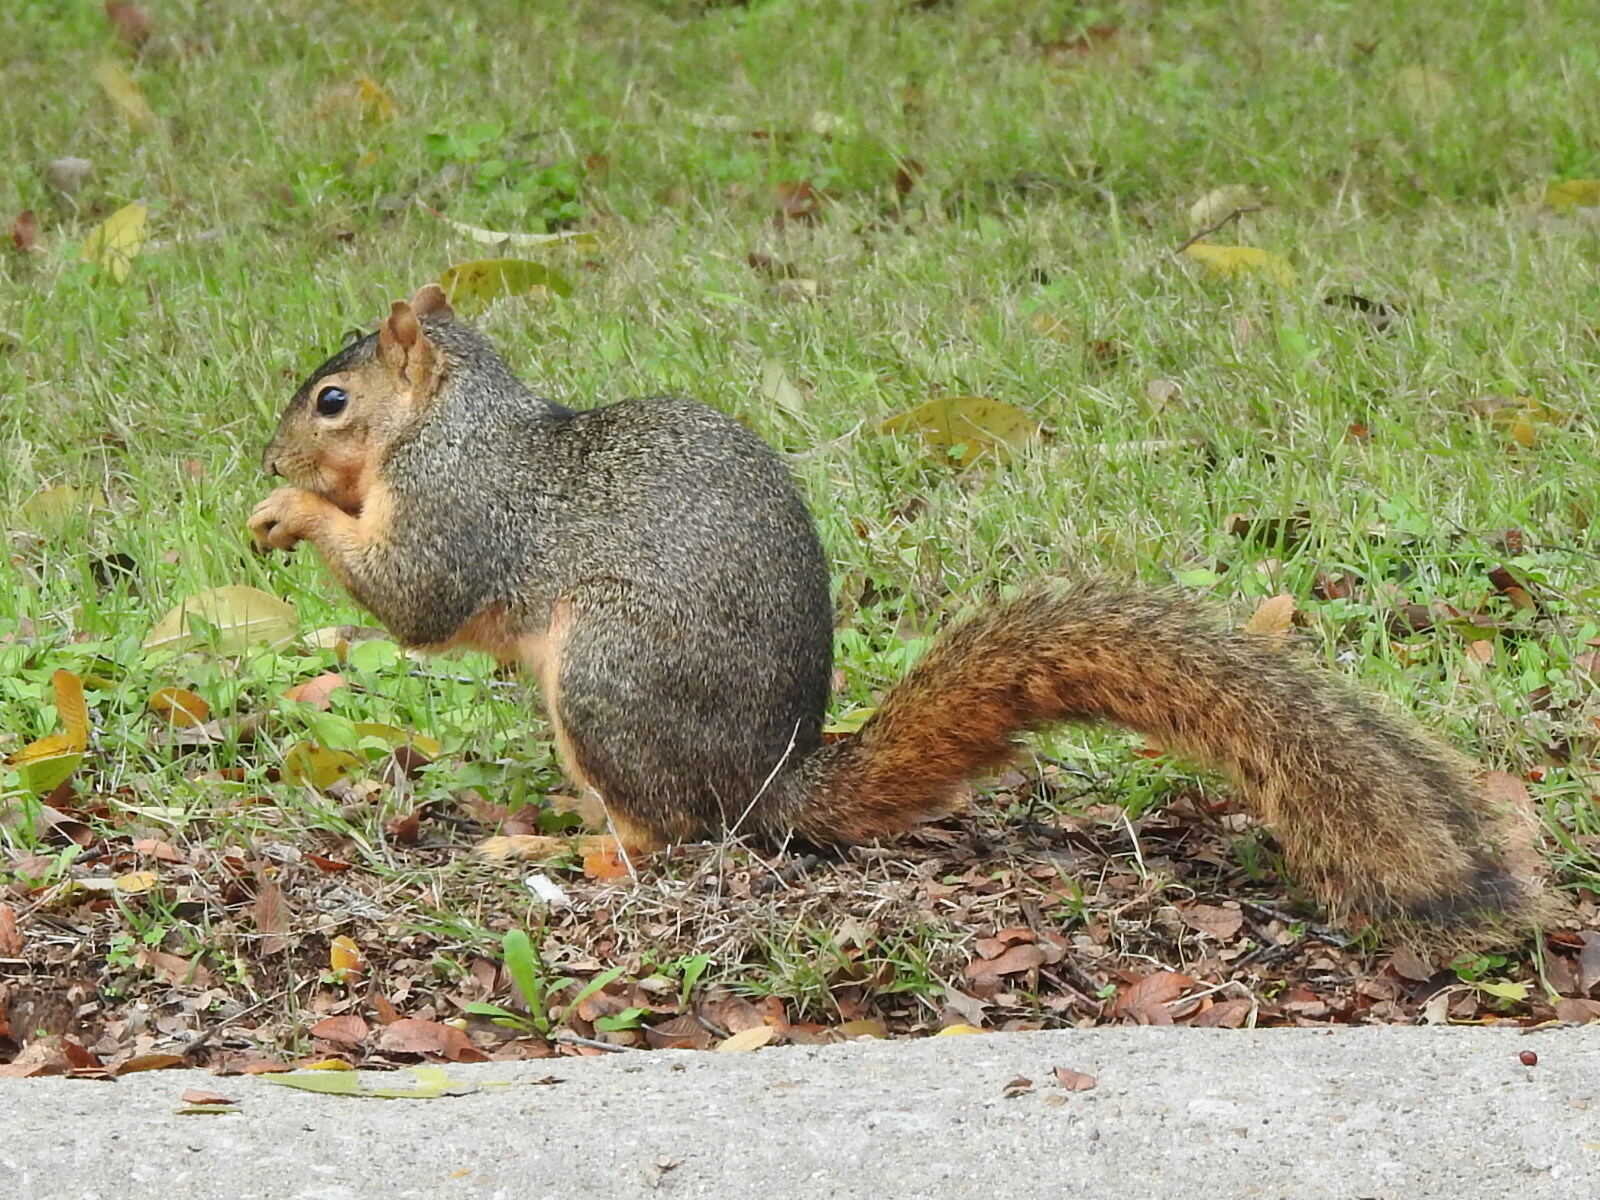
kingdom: Animalia
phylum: Chordata
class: Mammalia
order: Rodentia
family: Sciuridae
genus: Sciurus
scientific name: Sciurus niger
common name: Fox squirrel
